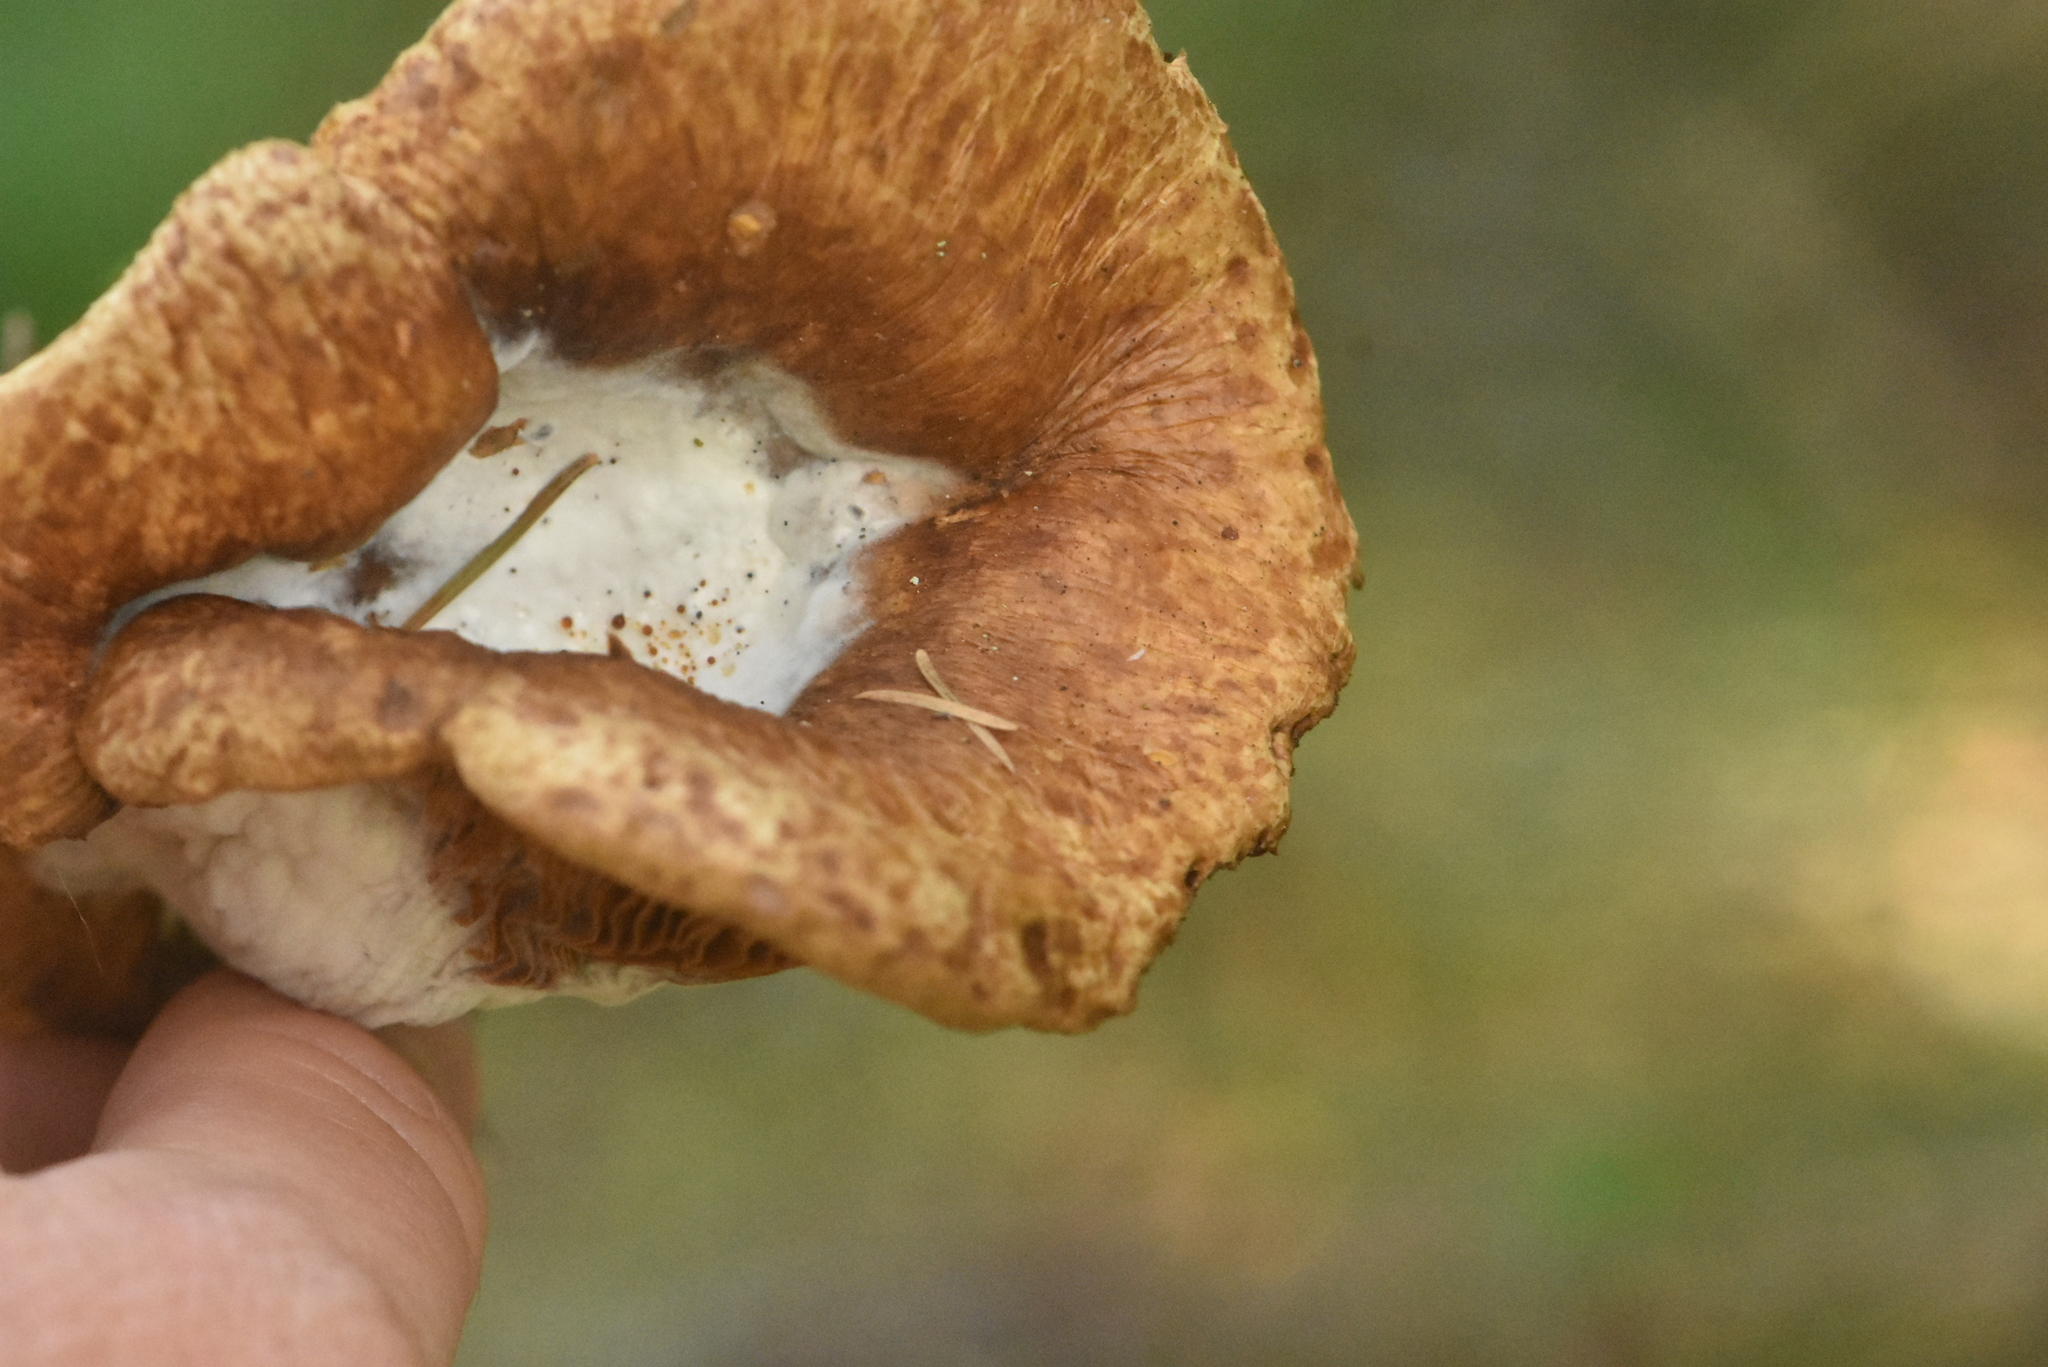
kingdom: Fungi
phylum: Basidiomycota
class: Agaricomycetes
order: Boletales
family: Paxillaceae
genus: Paxillus
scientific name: Paxillus involutus
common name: Brown roll rim
